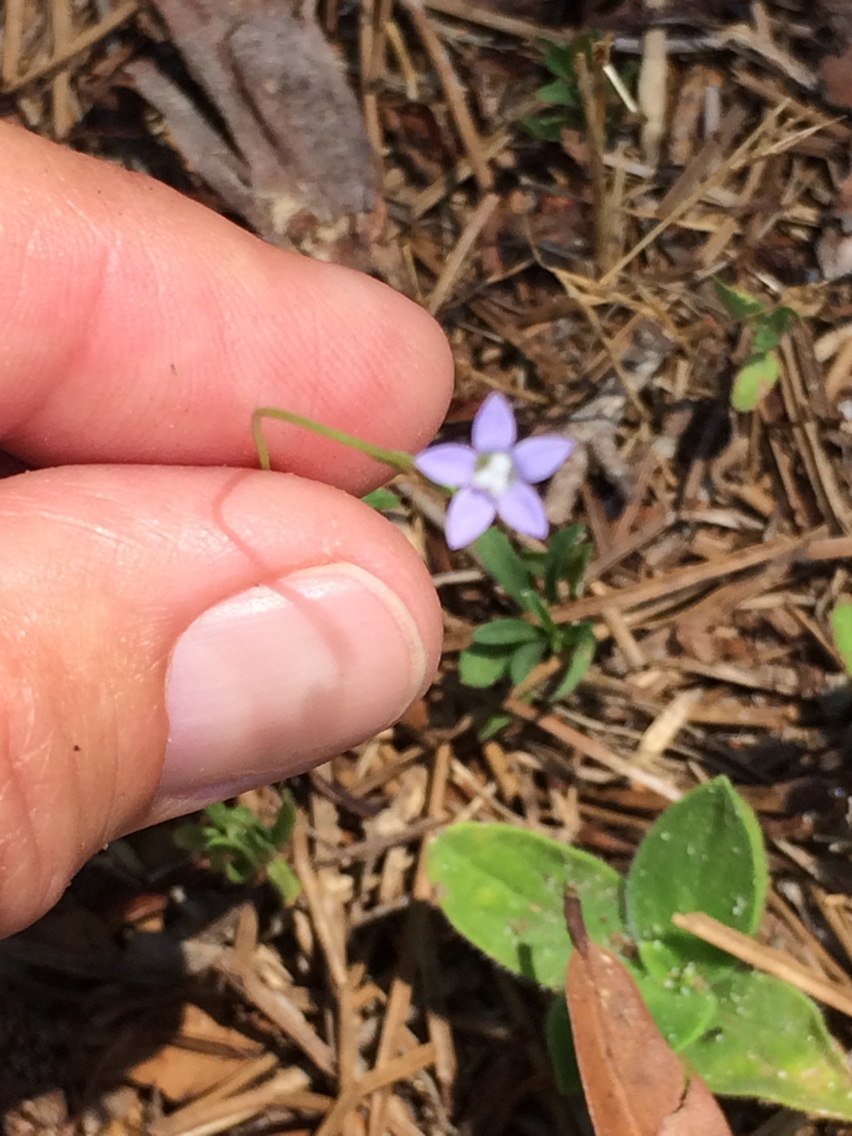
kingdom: Plantae
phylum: Tracheophyta
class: Magnoliopsida
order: Asterales
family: Campanulaceae
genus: Wahlenbergia
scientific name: Wahlenbergia marginata
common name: Southern rockbell
